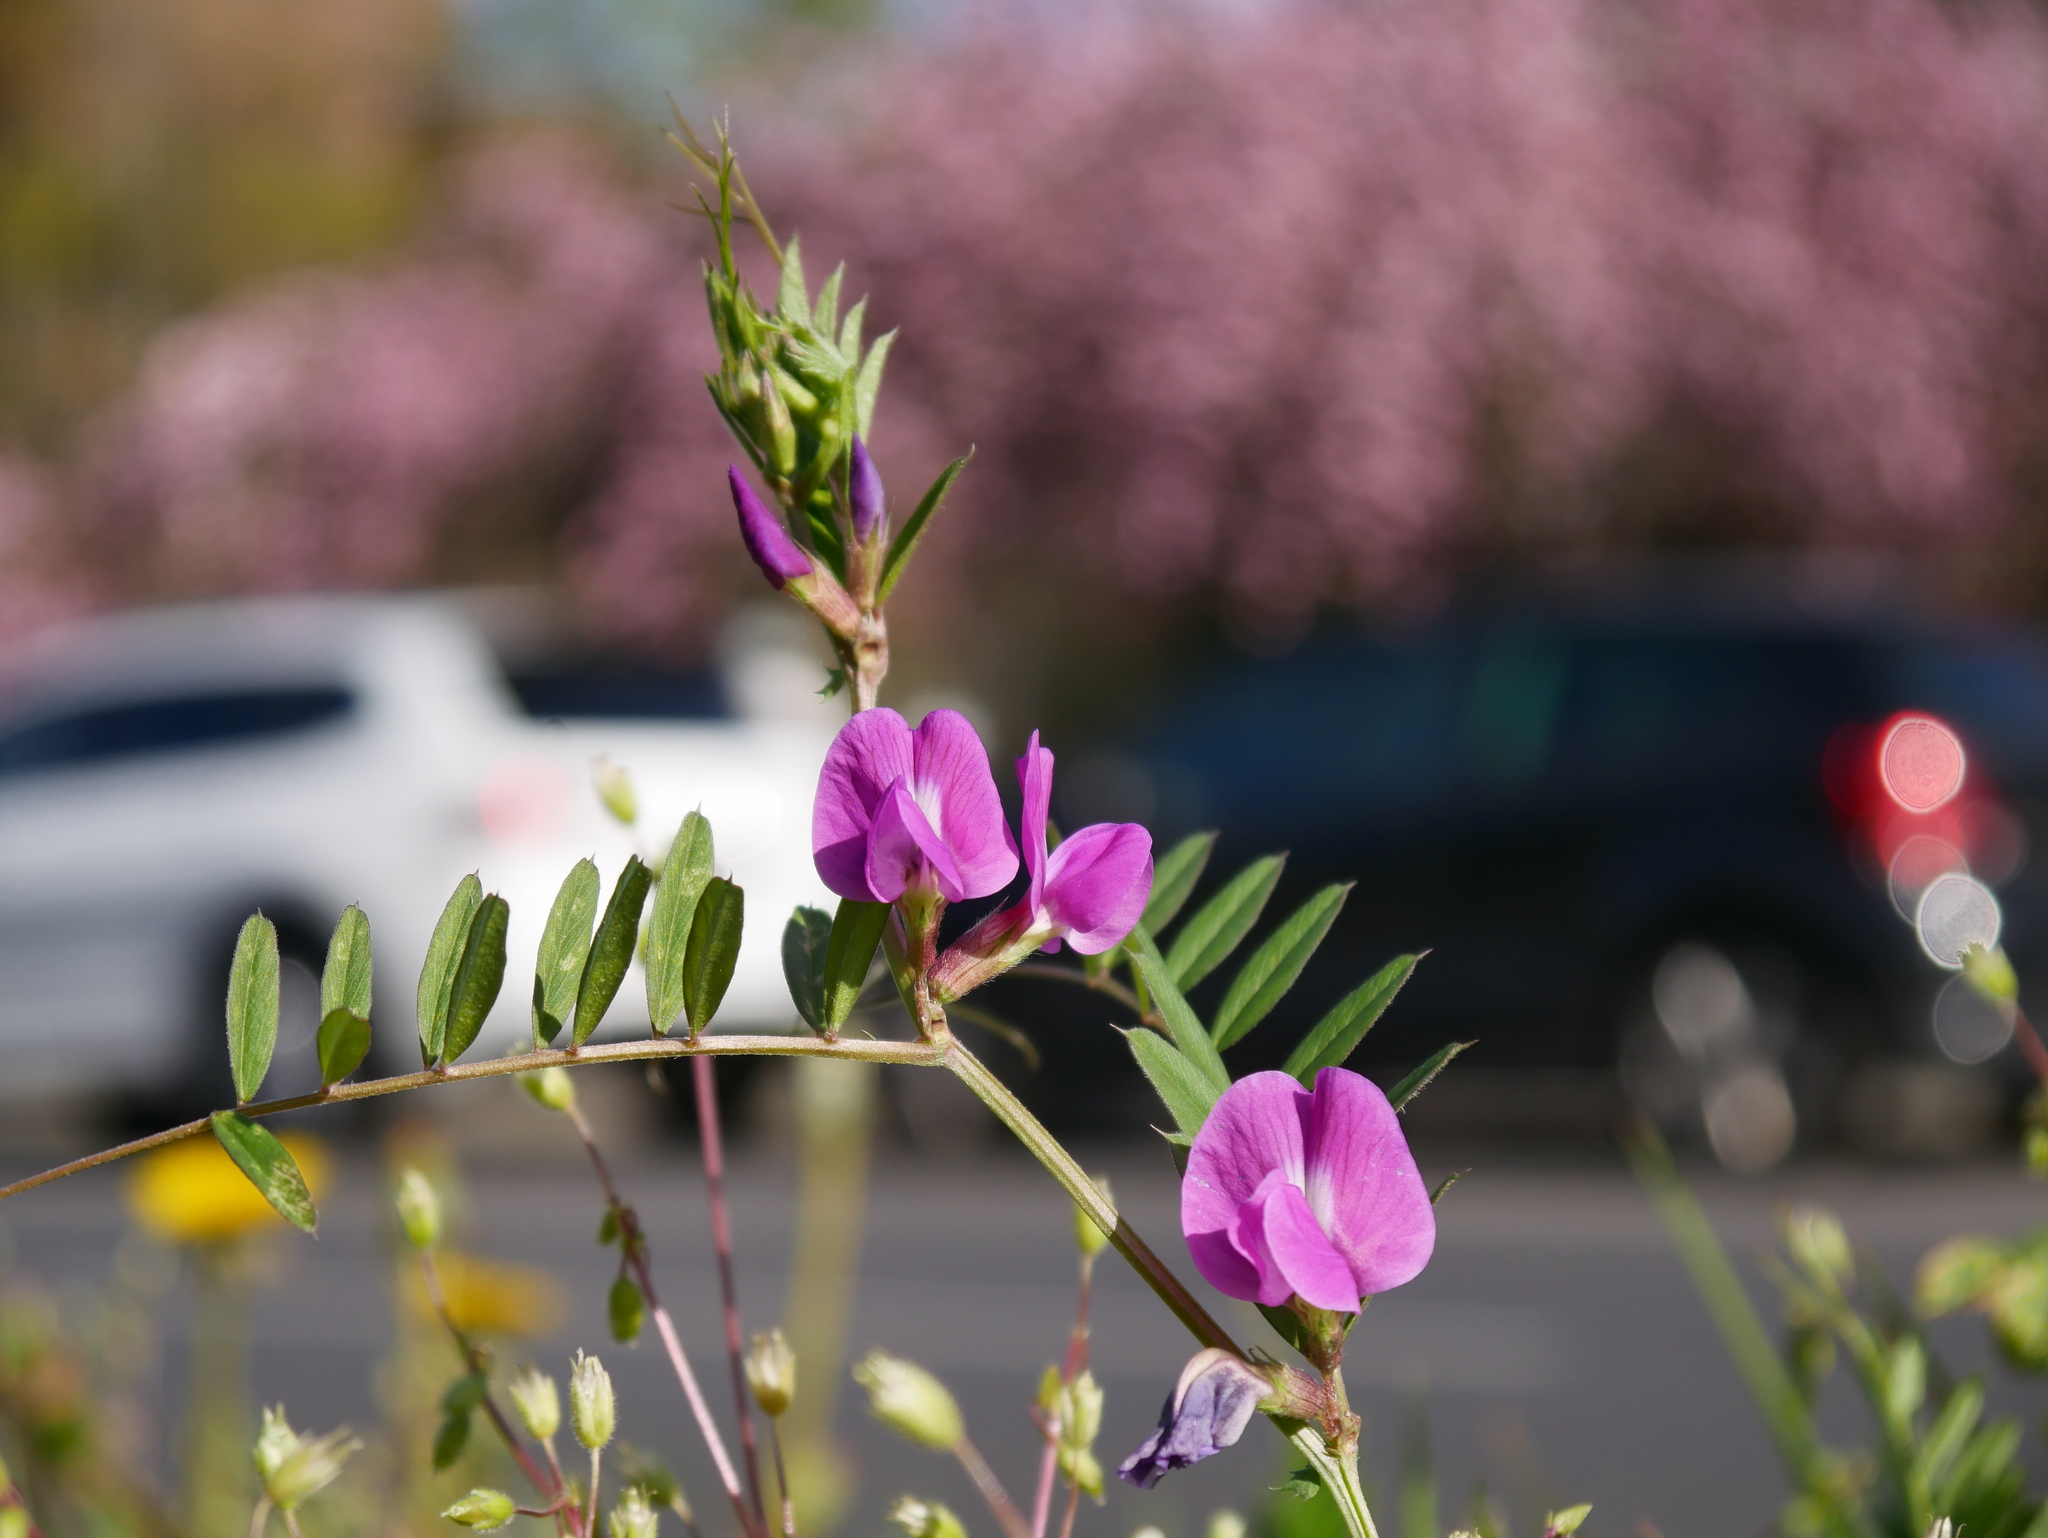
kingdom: Plantae
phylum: Tracheophyta
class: Magnoliopsida
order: Fabales
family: Fabaceae
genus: Vicia
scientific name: Vicia sativa
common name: Garden vetch
